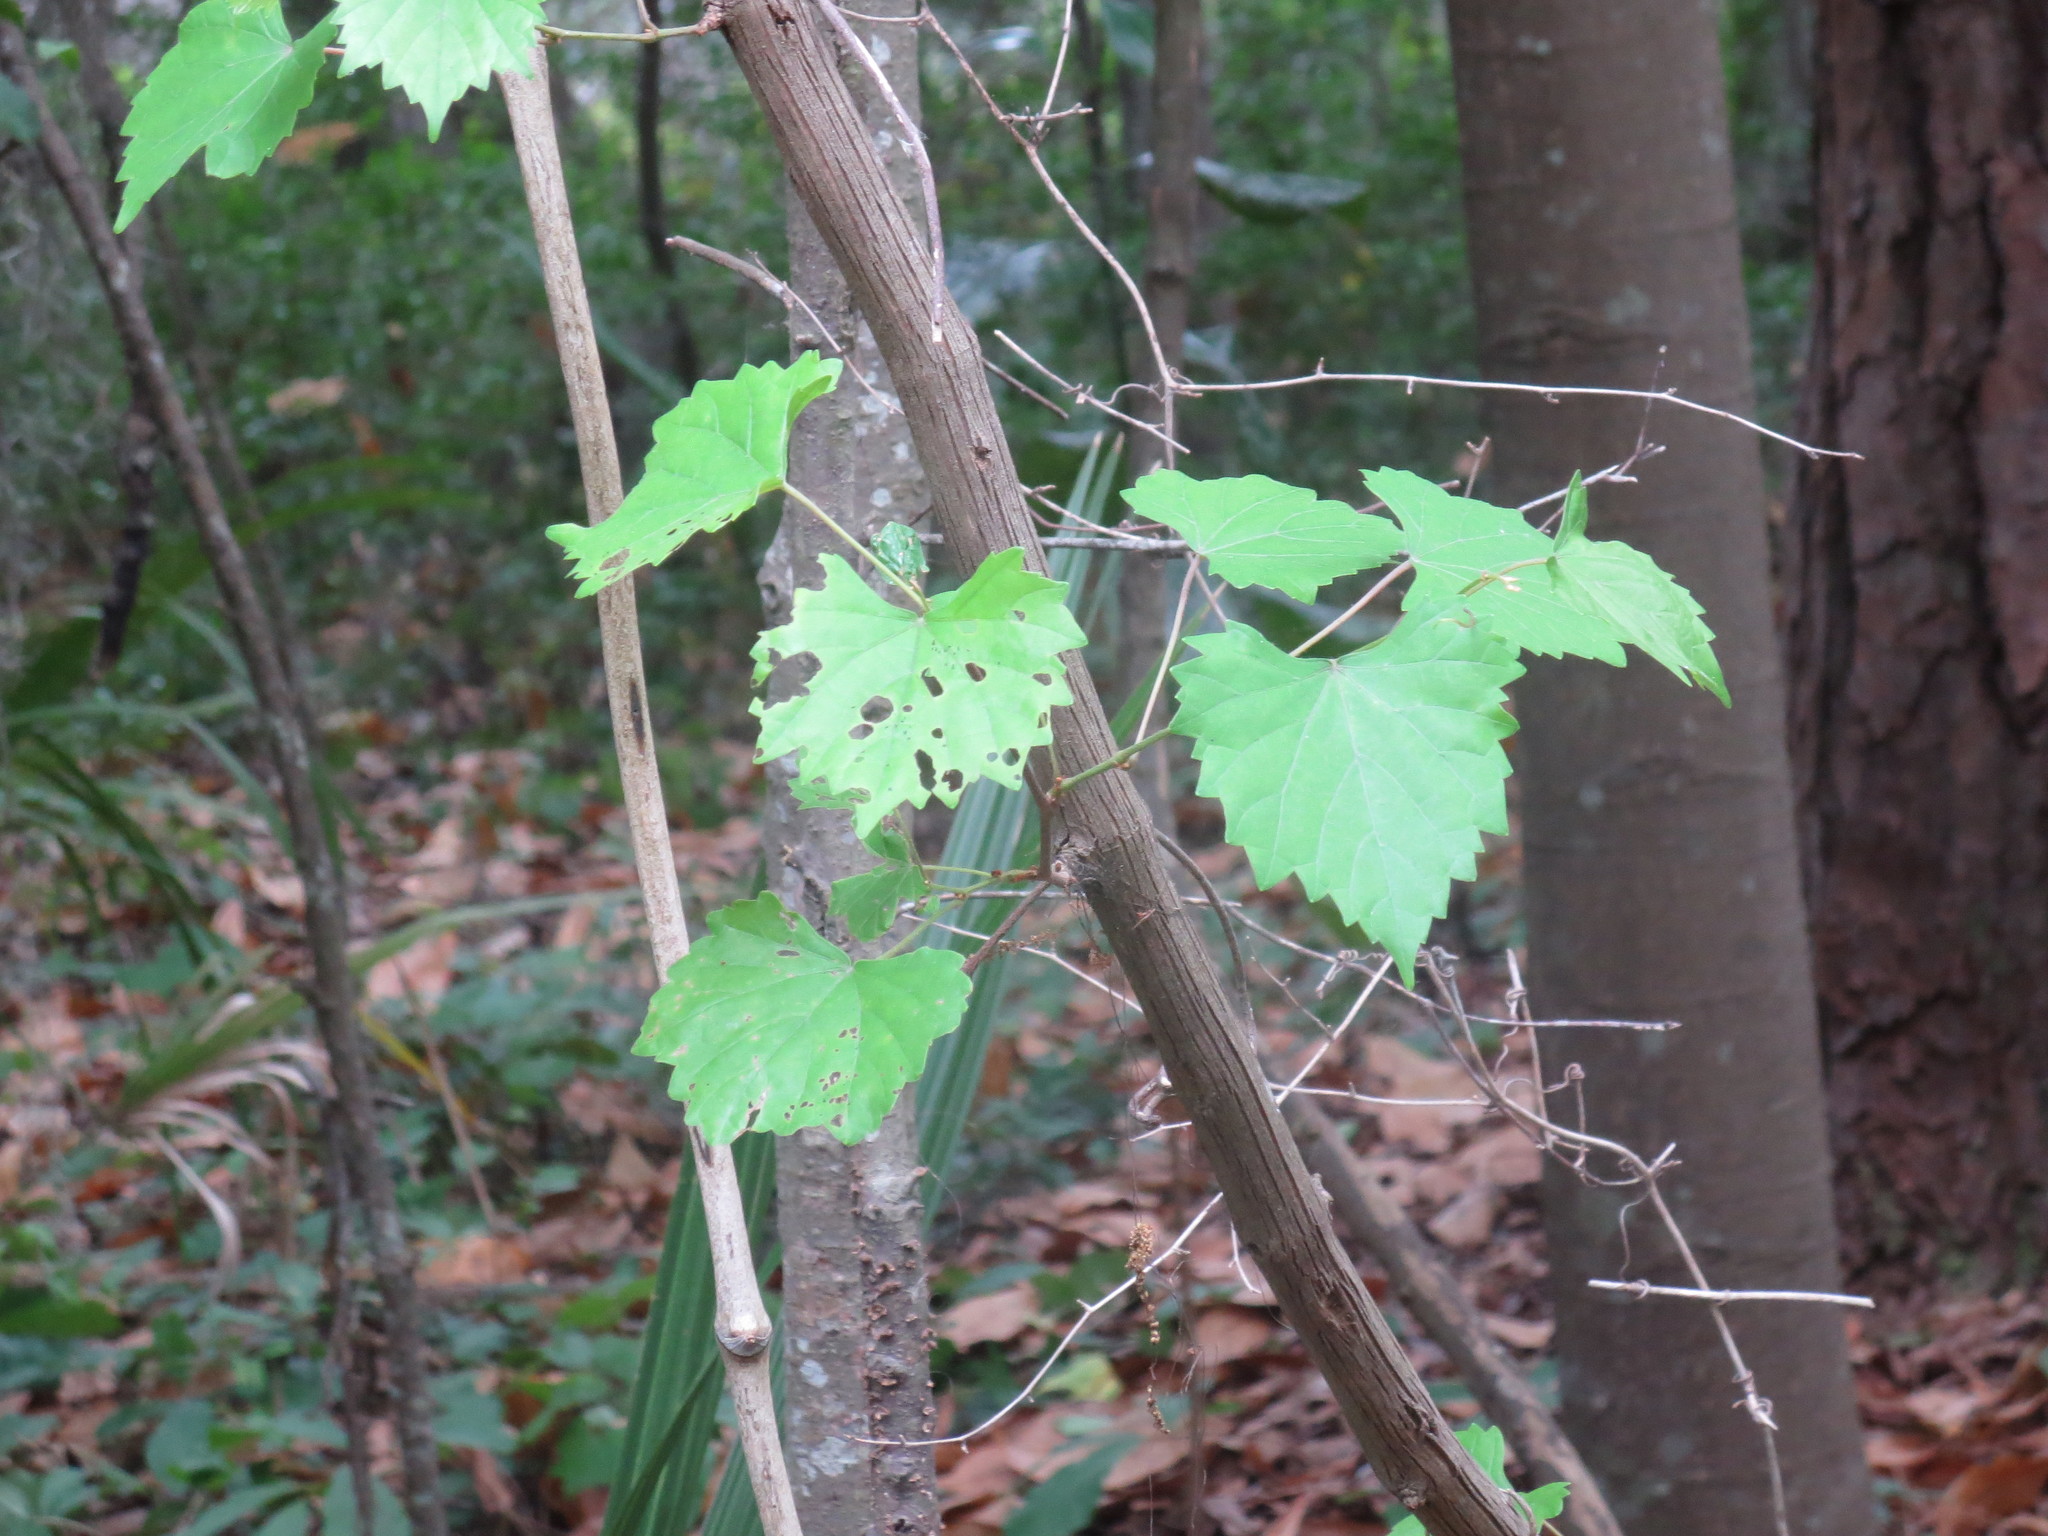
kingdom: Plantae
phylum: Tracheophyta
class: Magnoliopsida
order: Vitales
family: Vitaceae
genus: Vitis
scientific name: Vitis rotundifolia
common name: Muscadine grape
